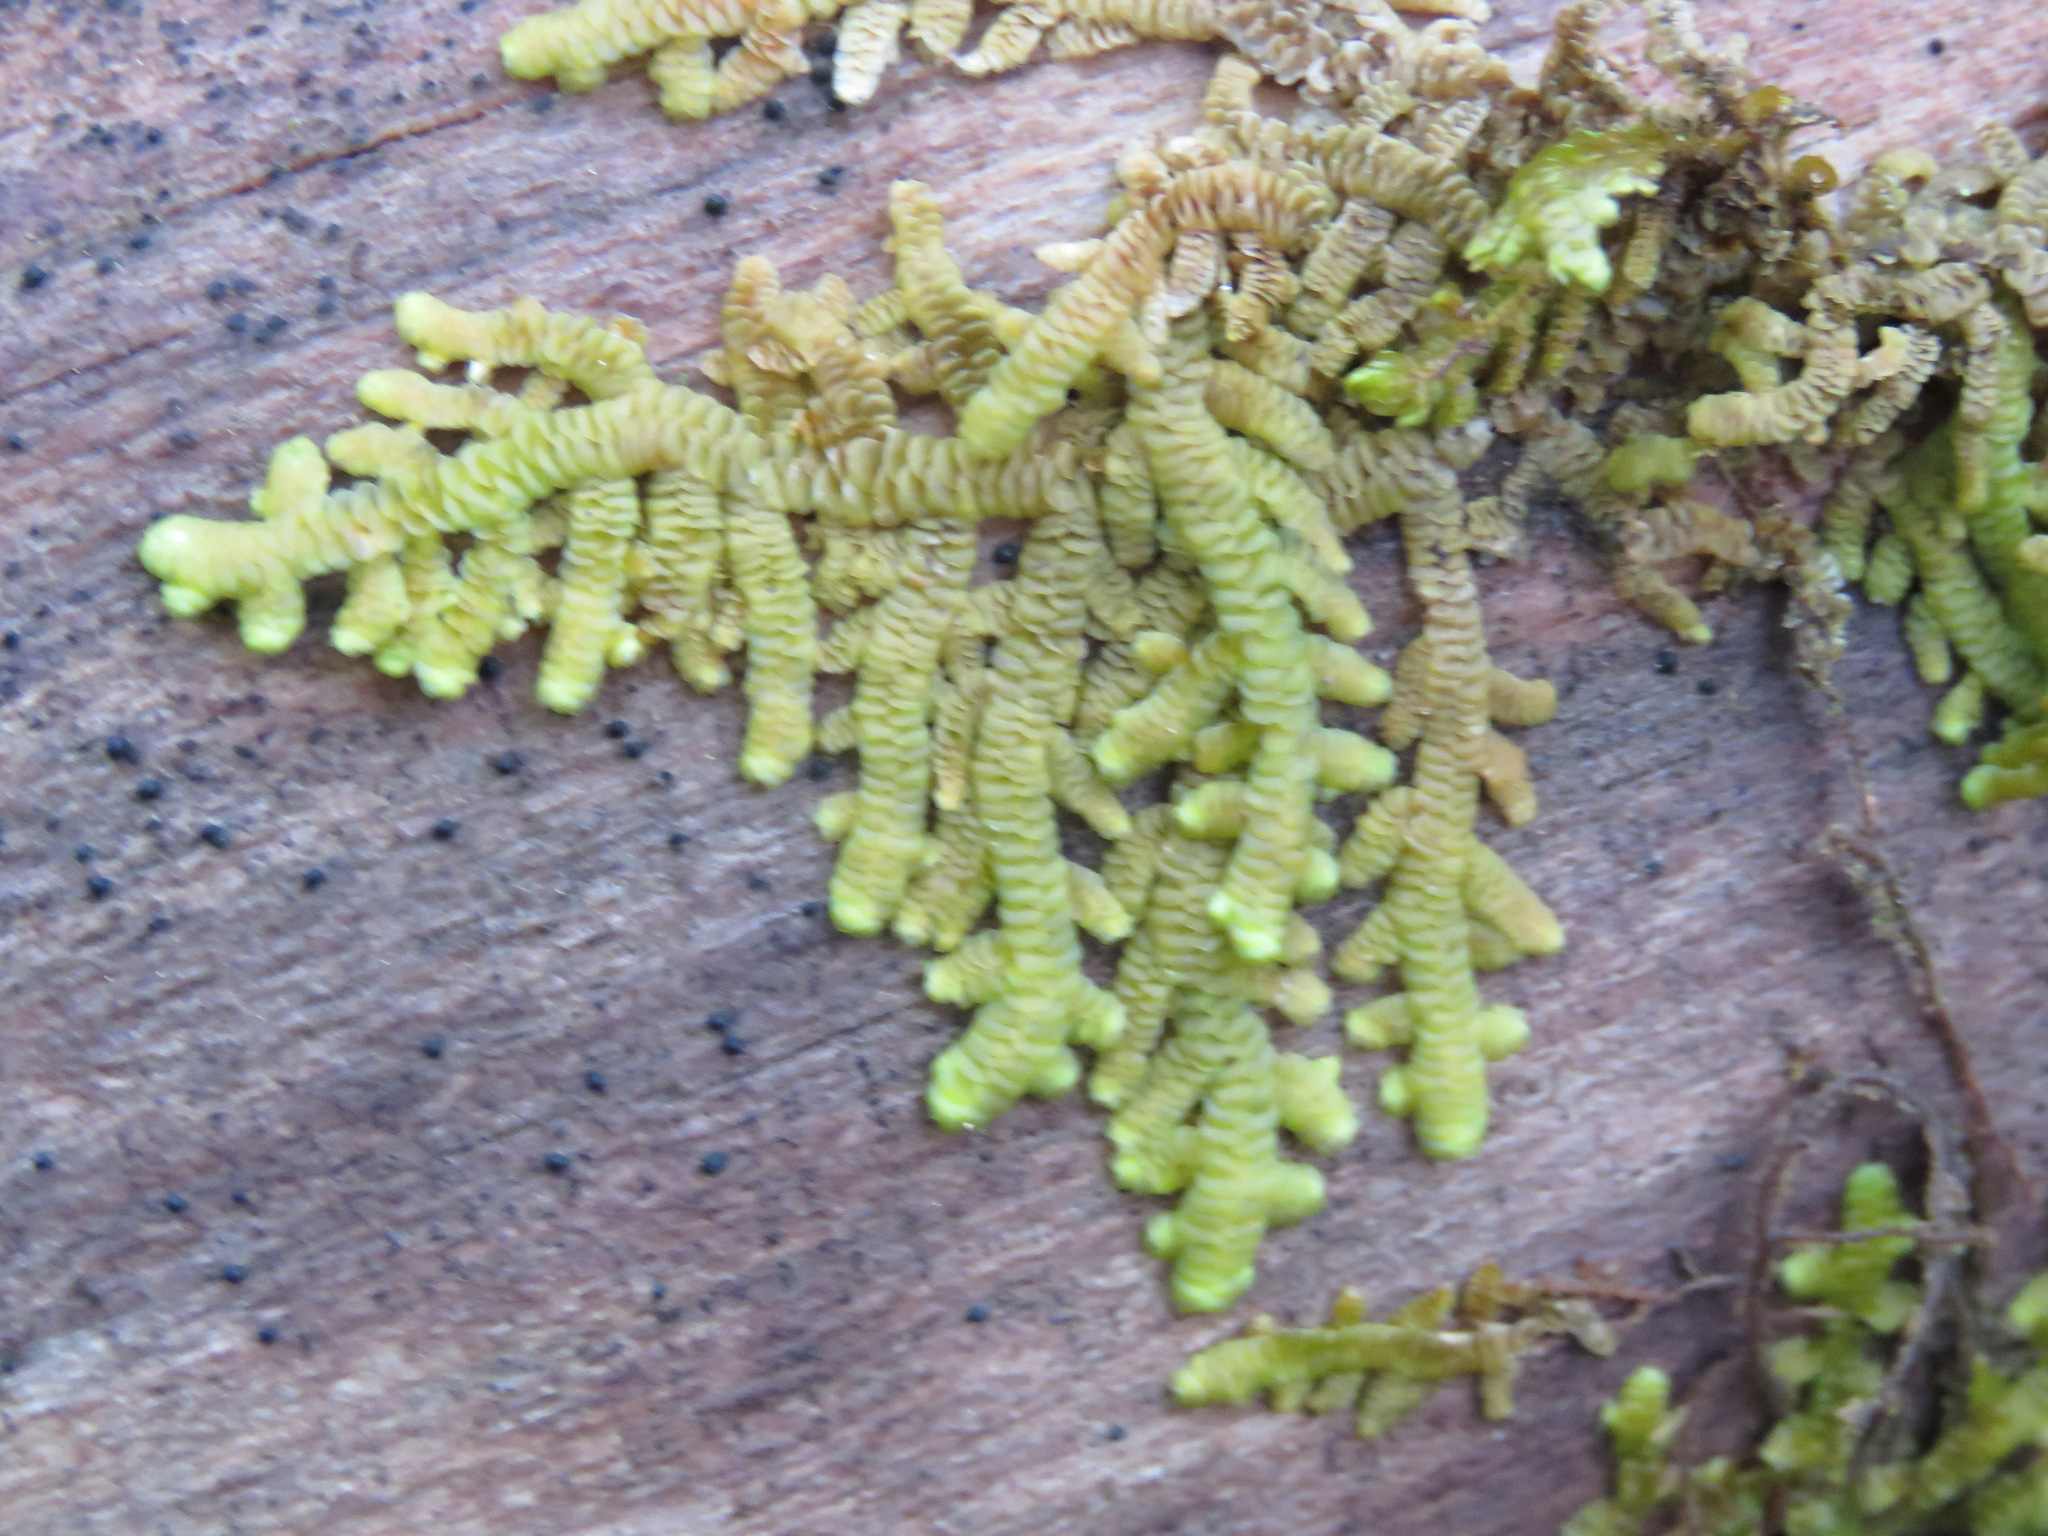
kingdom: Plantae
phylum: Marchantiophyta
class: Jungermanniopsida
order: Porellales
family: Porellaceae
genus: Porella
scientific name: Porella navicularis
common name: Tree ruffle liverwort
